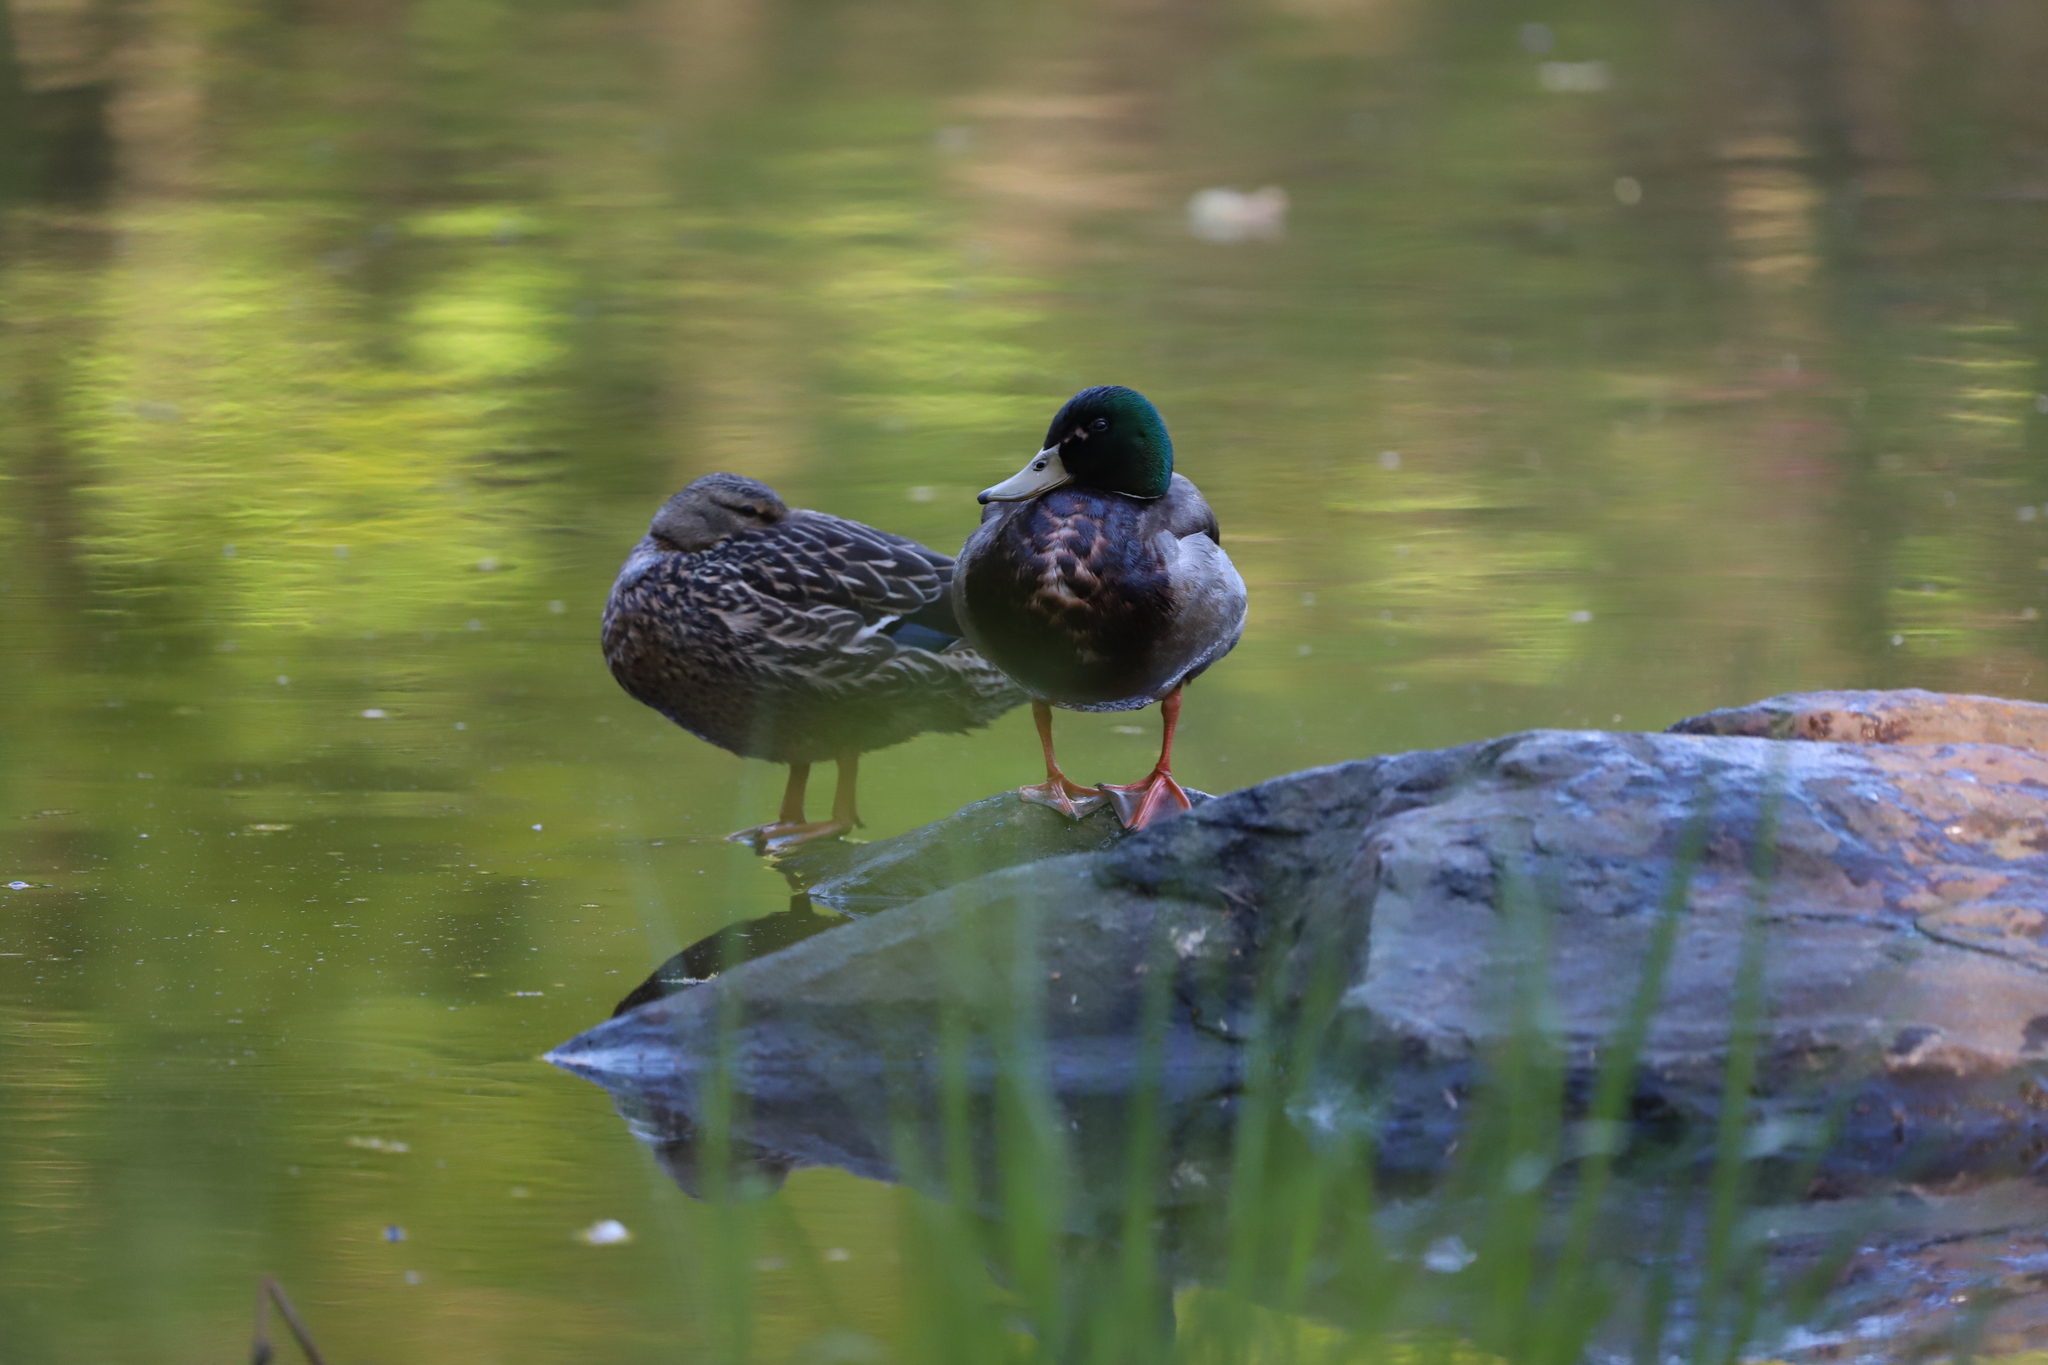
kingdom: Animalia
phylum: Chordata
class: Aves
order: Anseriformes
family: Anatidae
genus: Anas
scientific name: Anas platyrhynchos
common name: Mallard
